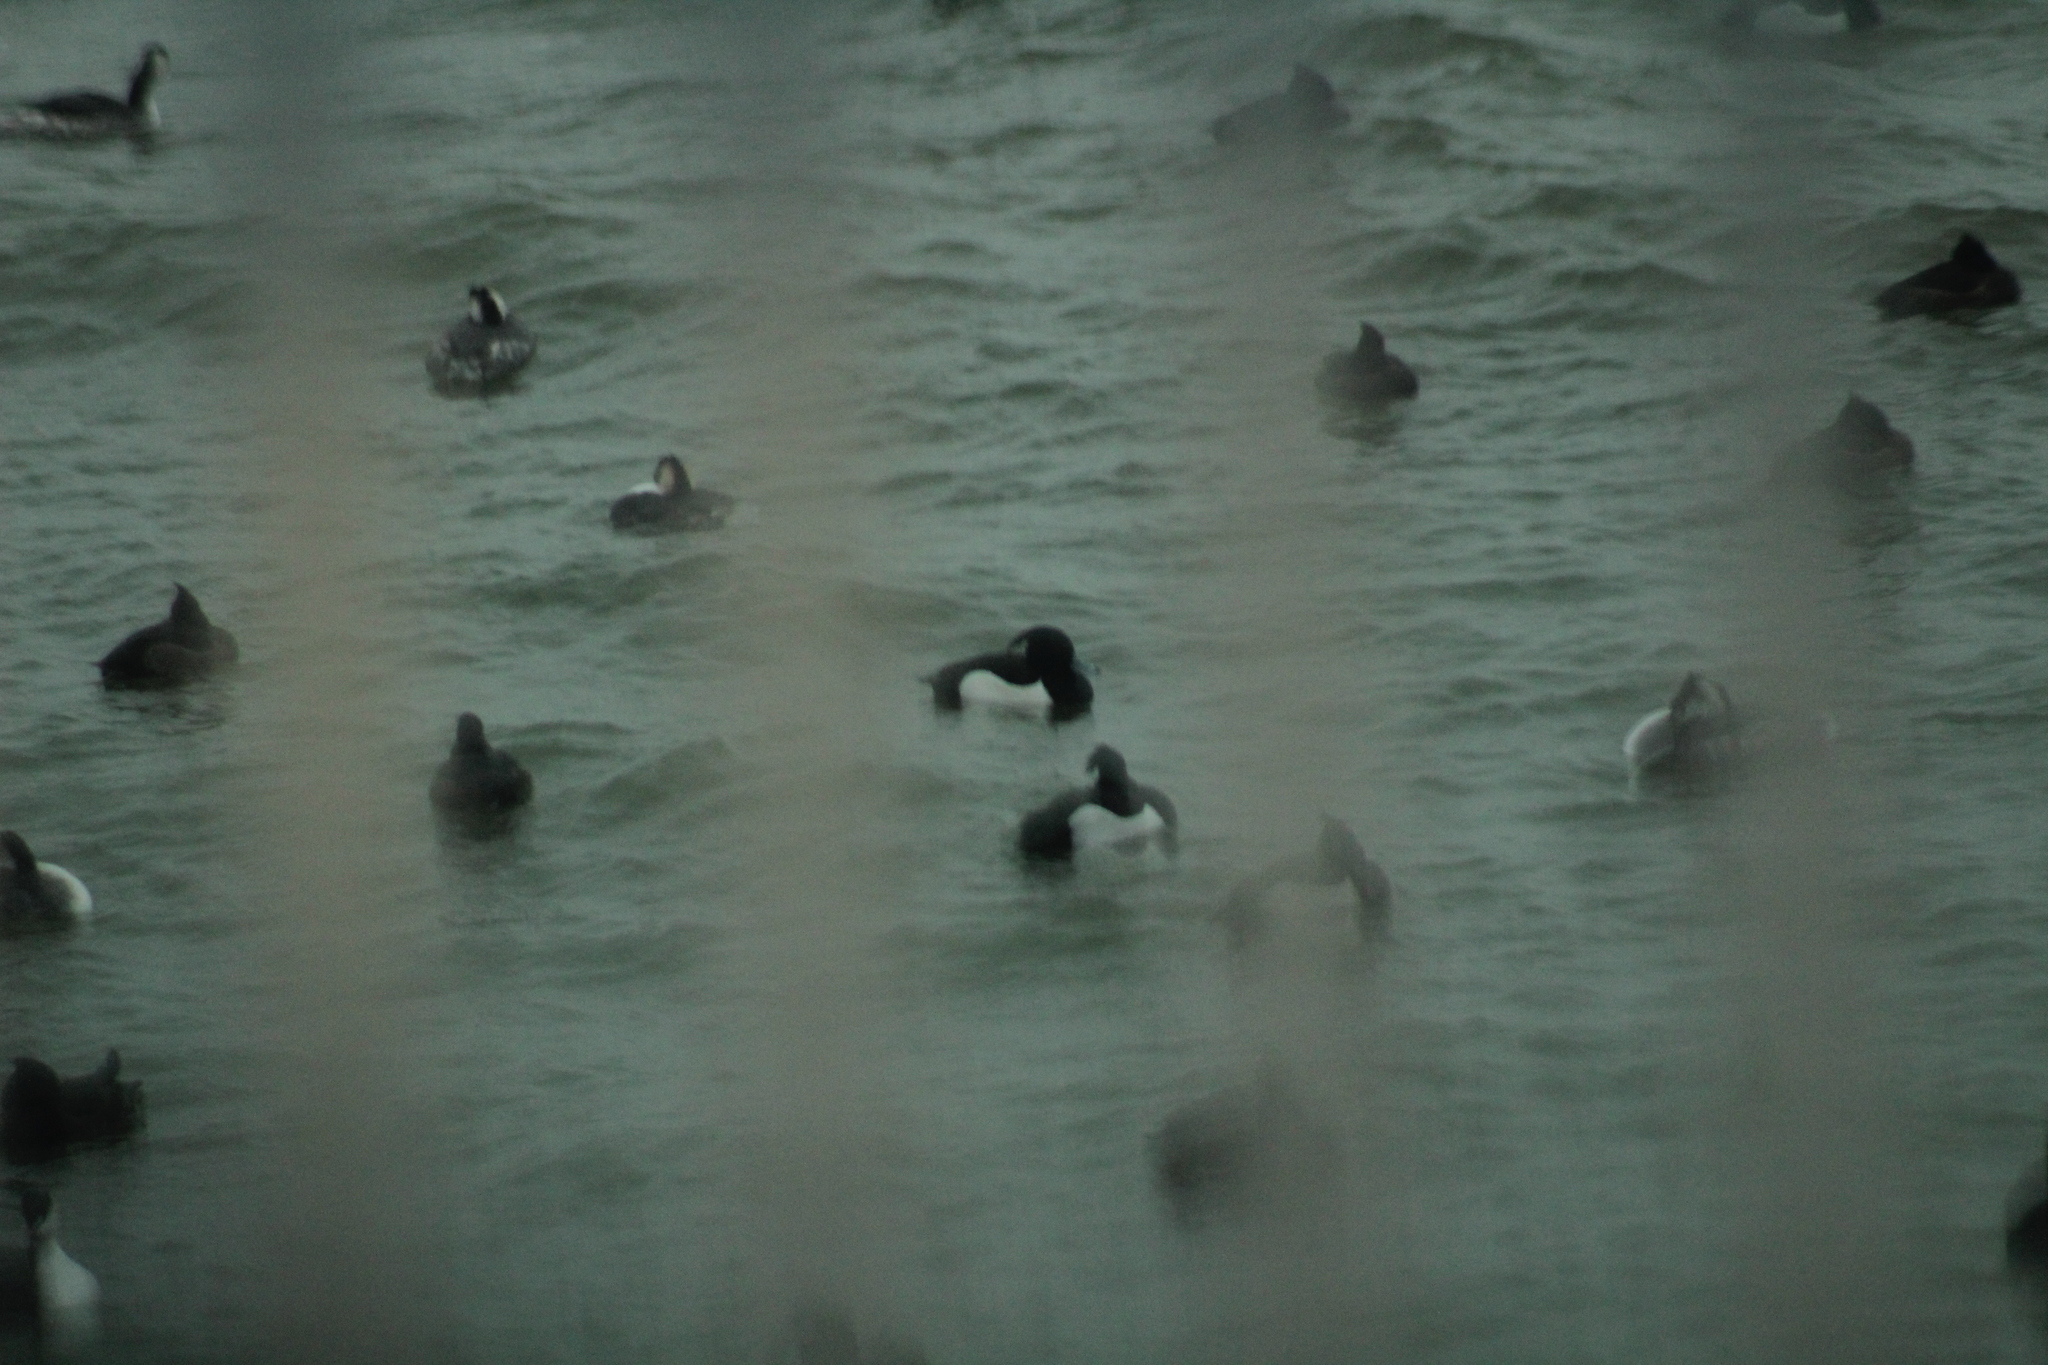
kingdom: Animalia
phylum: Chordata
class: Aves
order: Anseriformes
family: Anatidae
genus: Aythya
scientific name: Aythya fuligula
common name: Tufted duck
